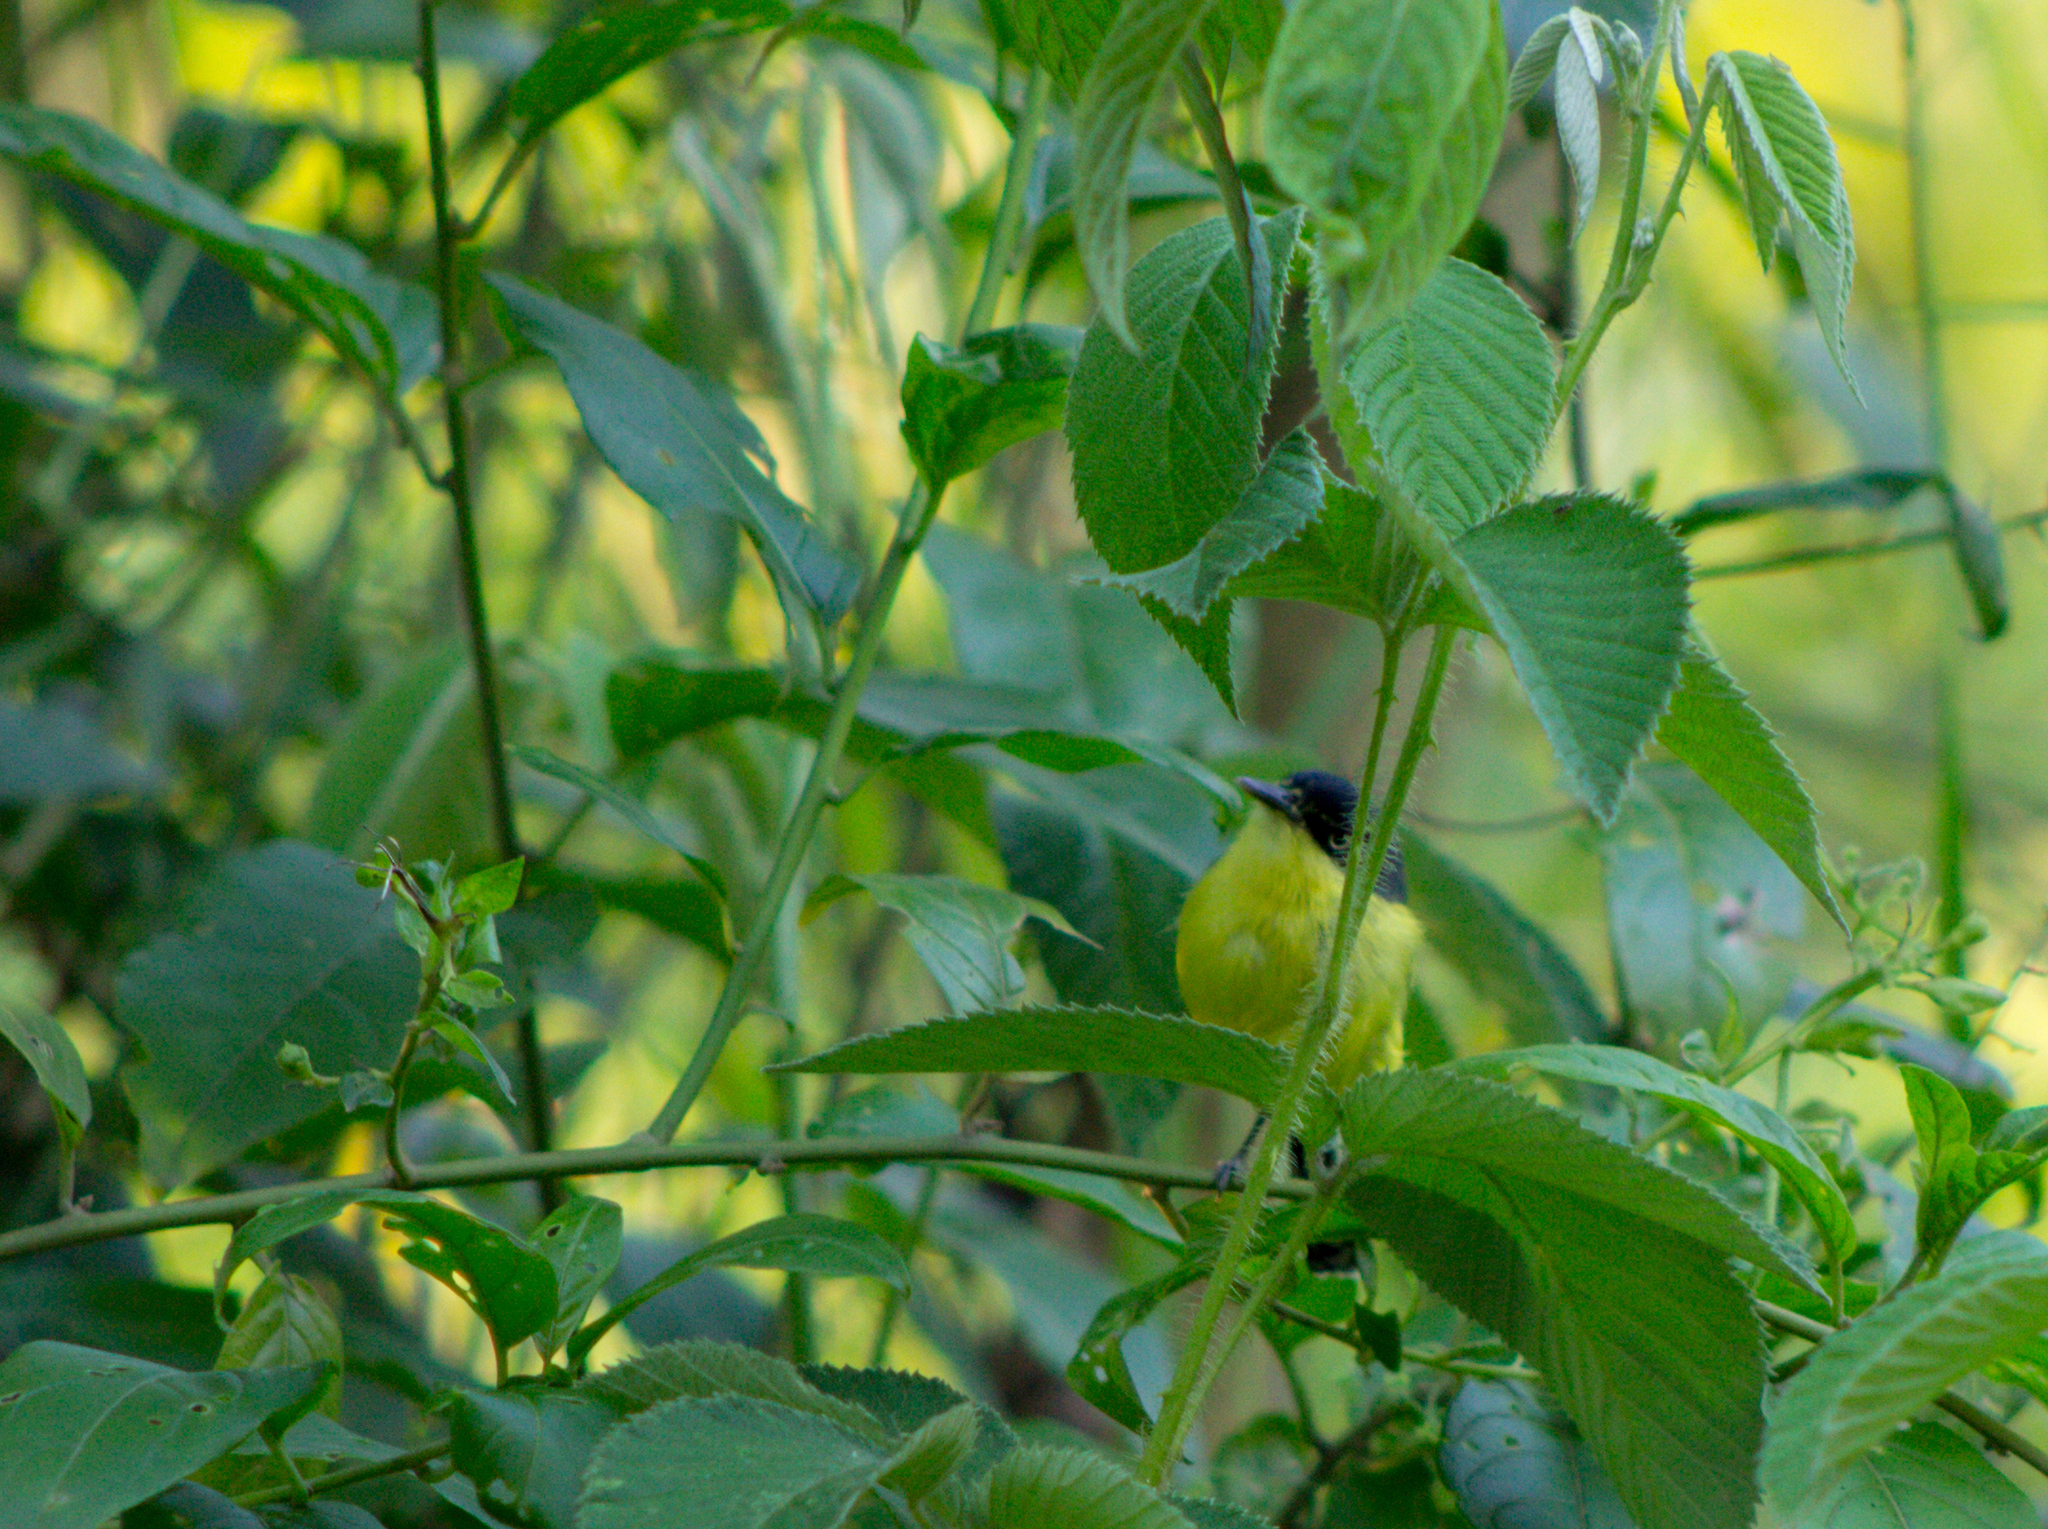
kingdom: Animalia
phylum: Chordata
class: Aves
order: Passeriformes
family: Tyrannidae
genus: Todirostrum
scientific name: Todirostrum cinereum
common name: Common tody-flycatcher
